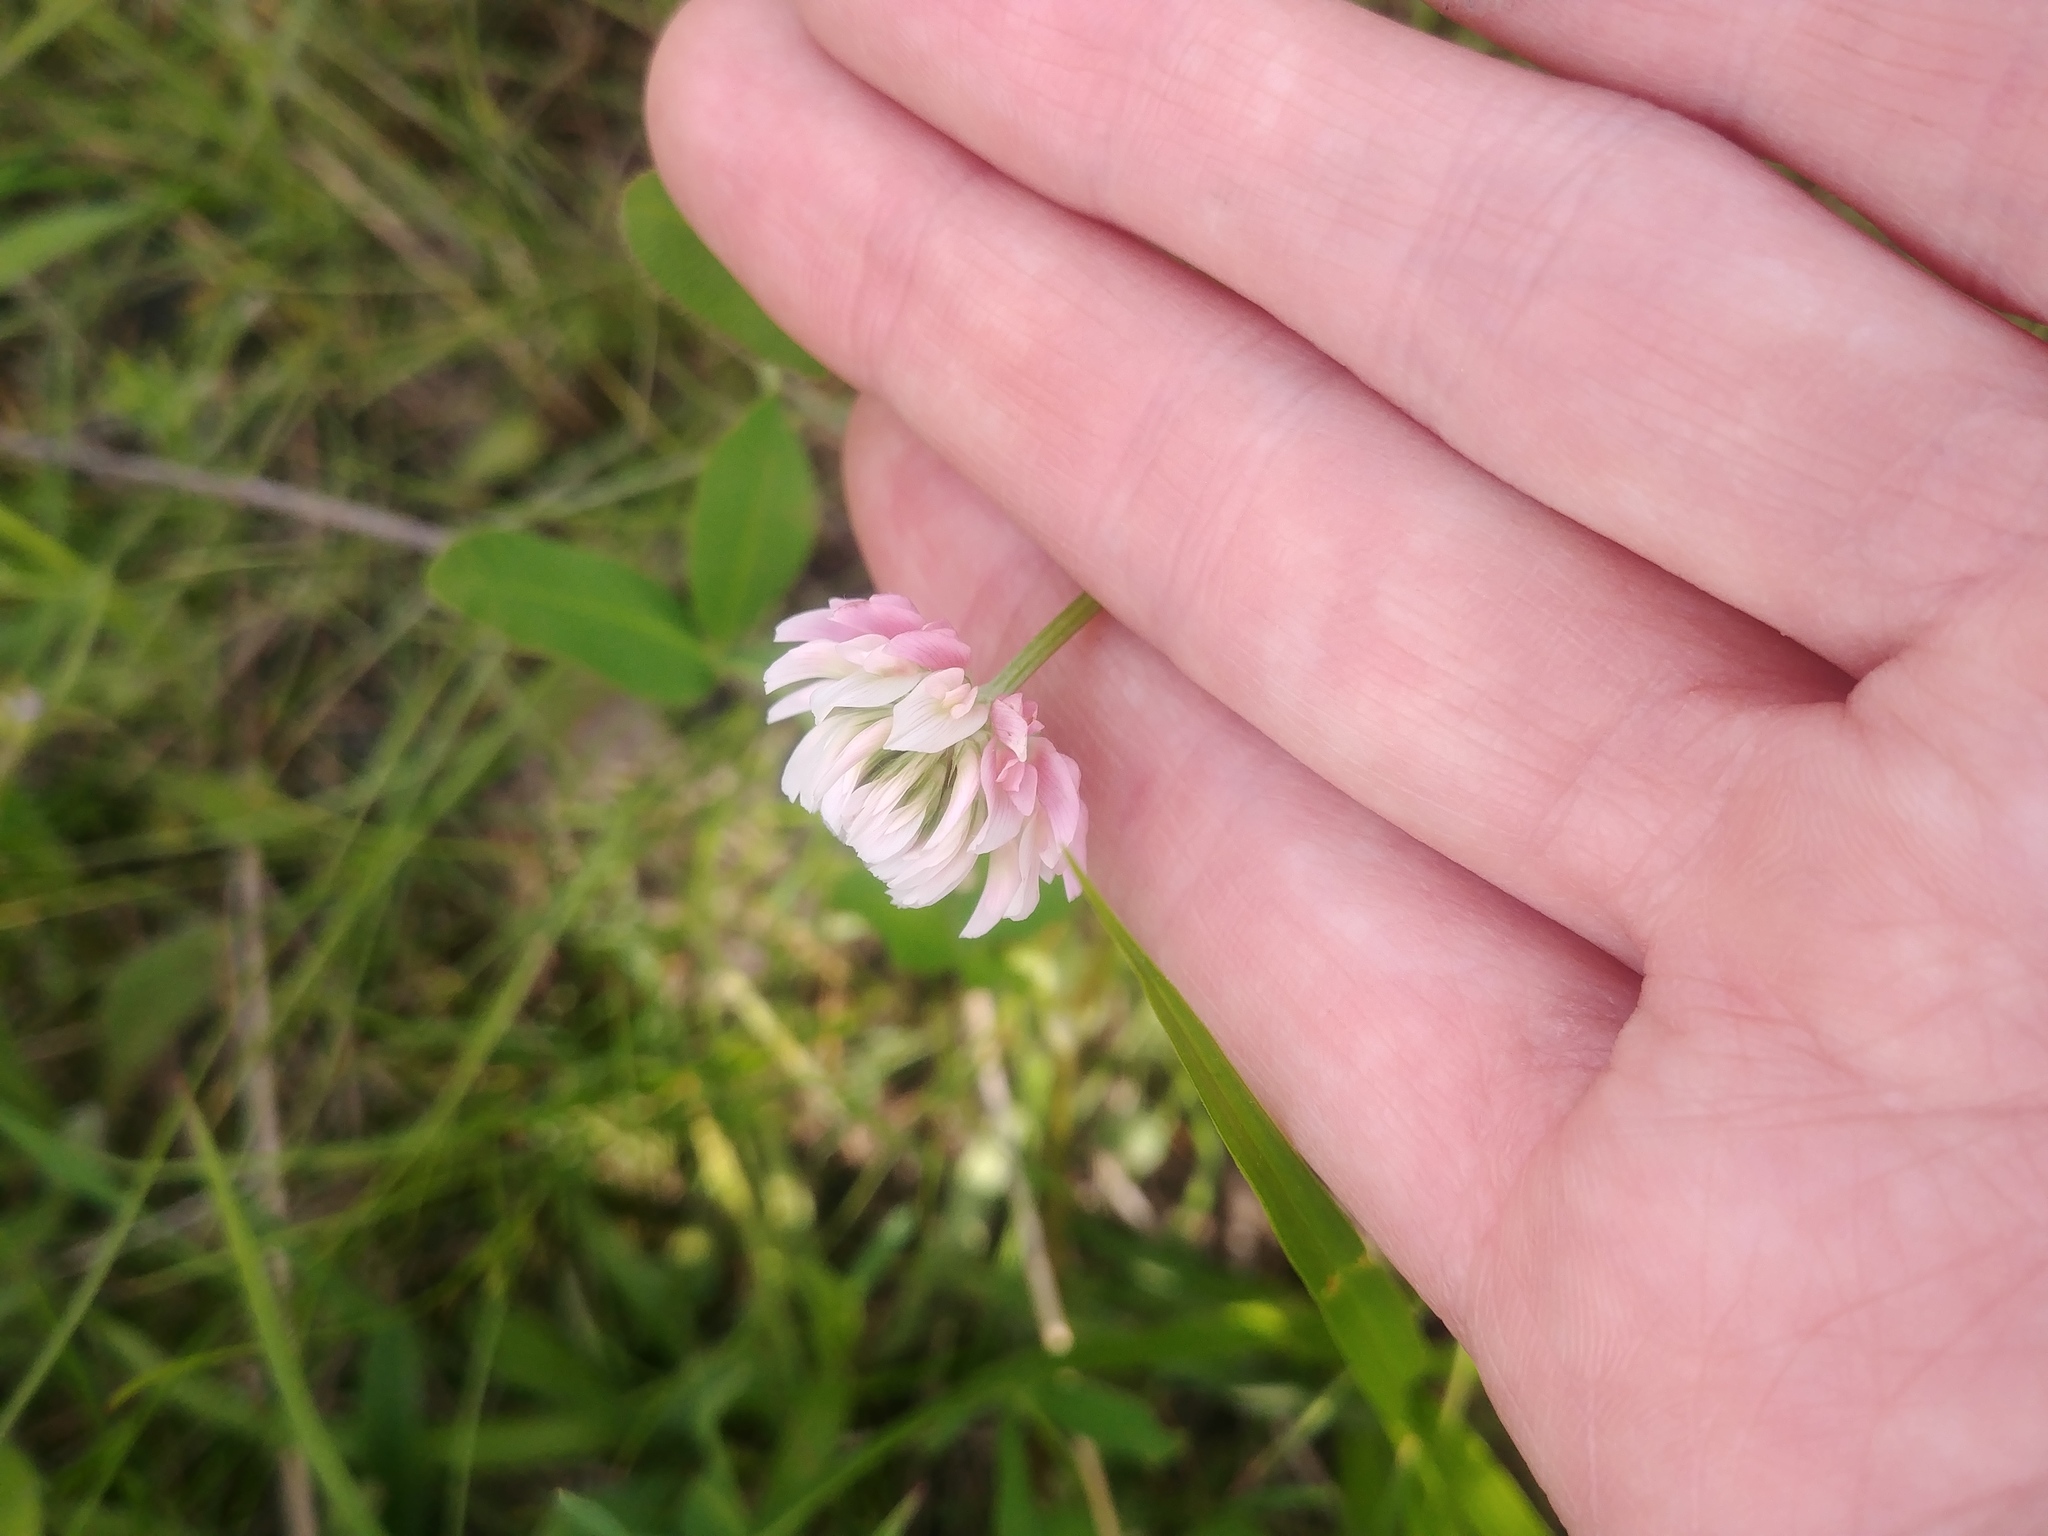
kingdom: Plantae
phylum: Tracheophyta
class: Magnoliopsida
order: Fabales
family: Fabaceae
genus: Trifolium
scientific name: Trifolium repens
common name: White clover
